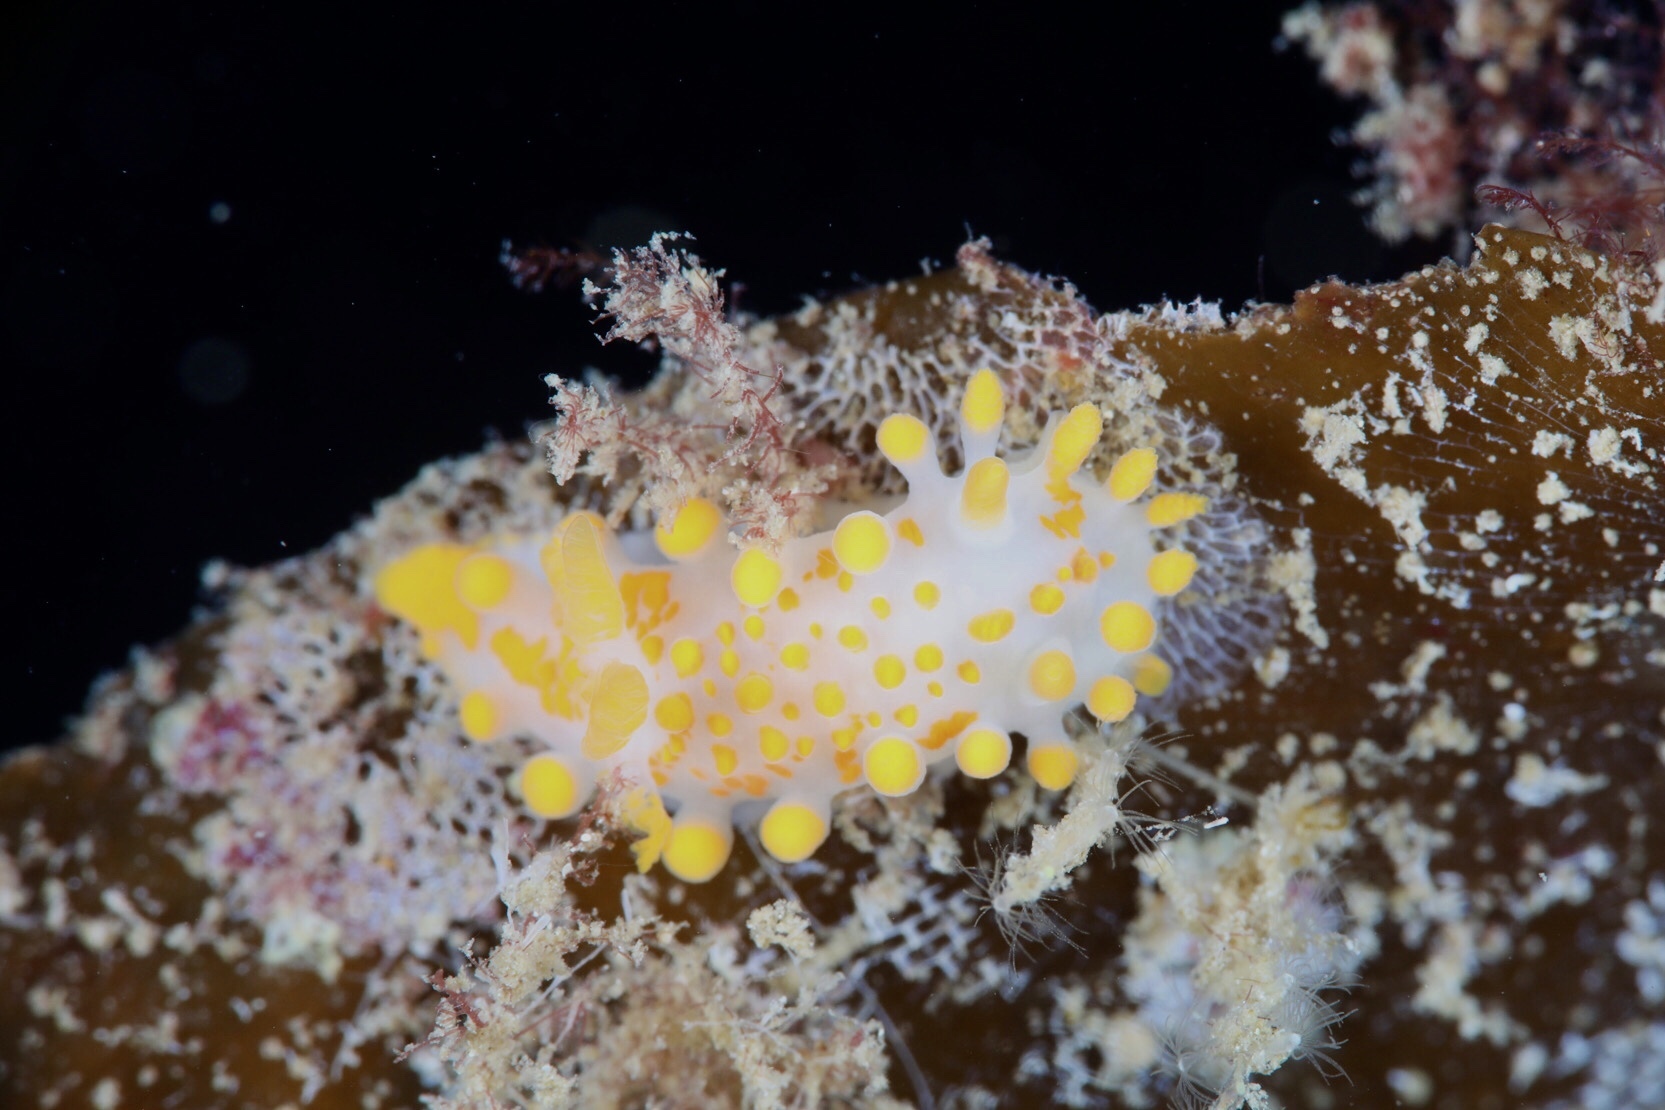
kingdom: Animalia
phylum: Mollusca
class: Gastropoda
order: Nudibranchia
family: Polyceridae
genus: Limacia
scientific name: Limacia clavigera
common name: Orange-clubbed sea slug
